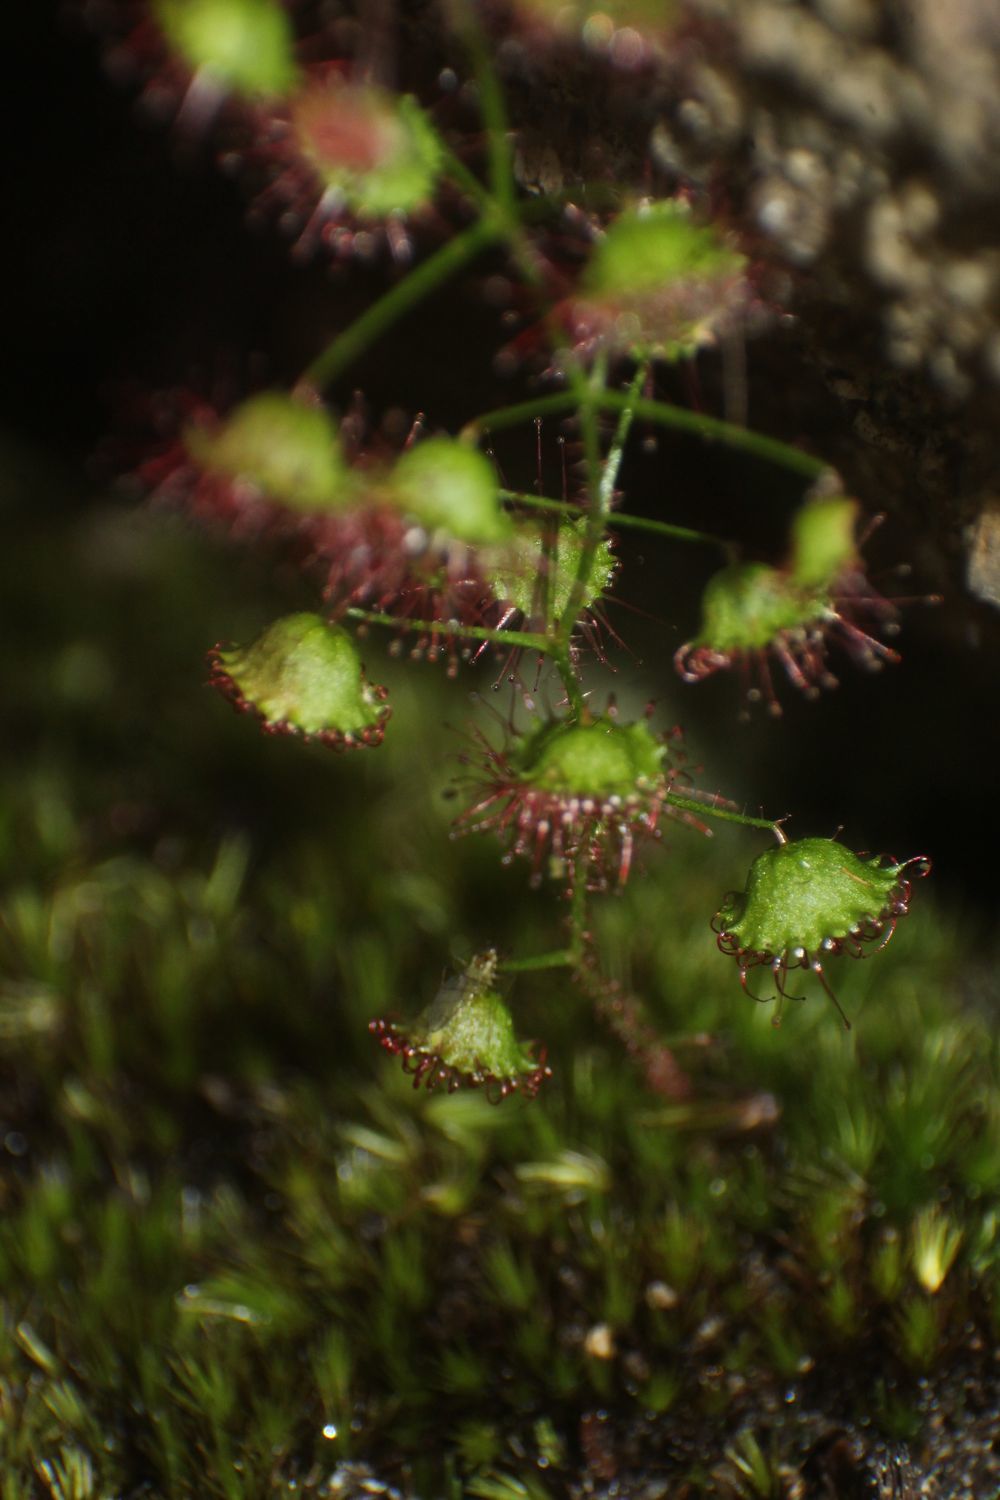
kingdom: Plantae
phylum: Tracheophyta
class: Magnoliopsida
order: Caryophyllales
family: Droseraceae
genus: Drosera
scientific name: Drosera macrantha
